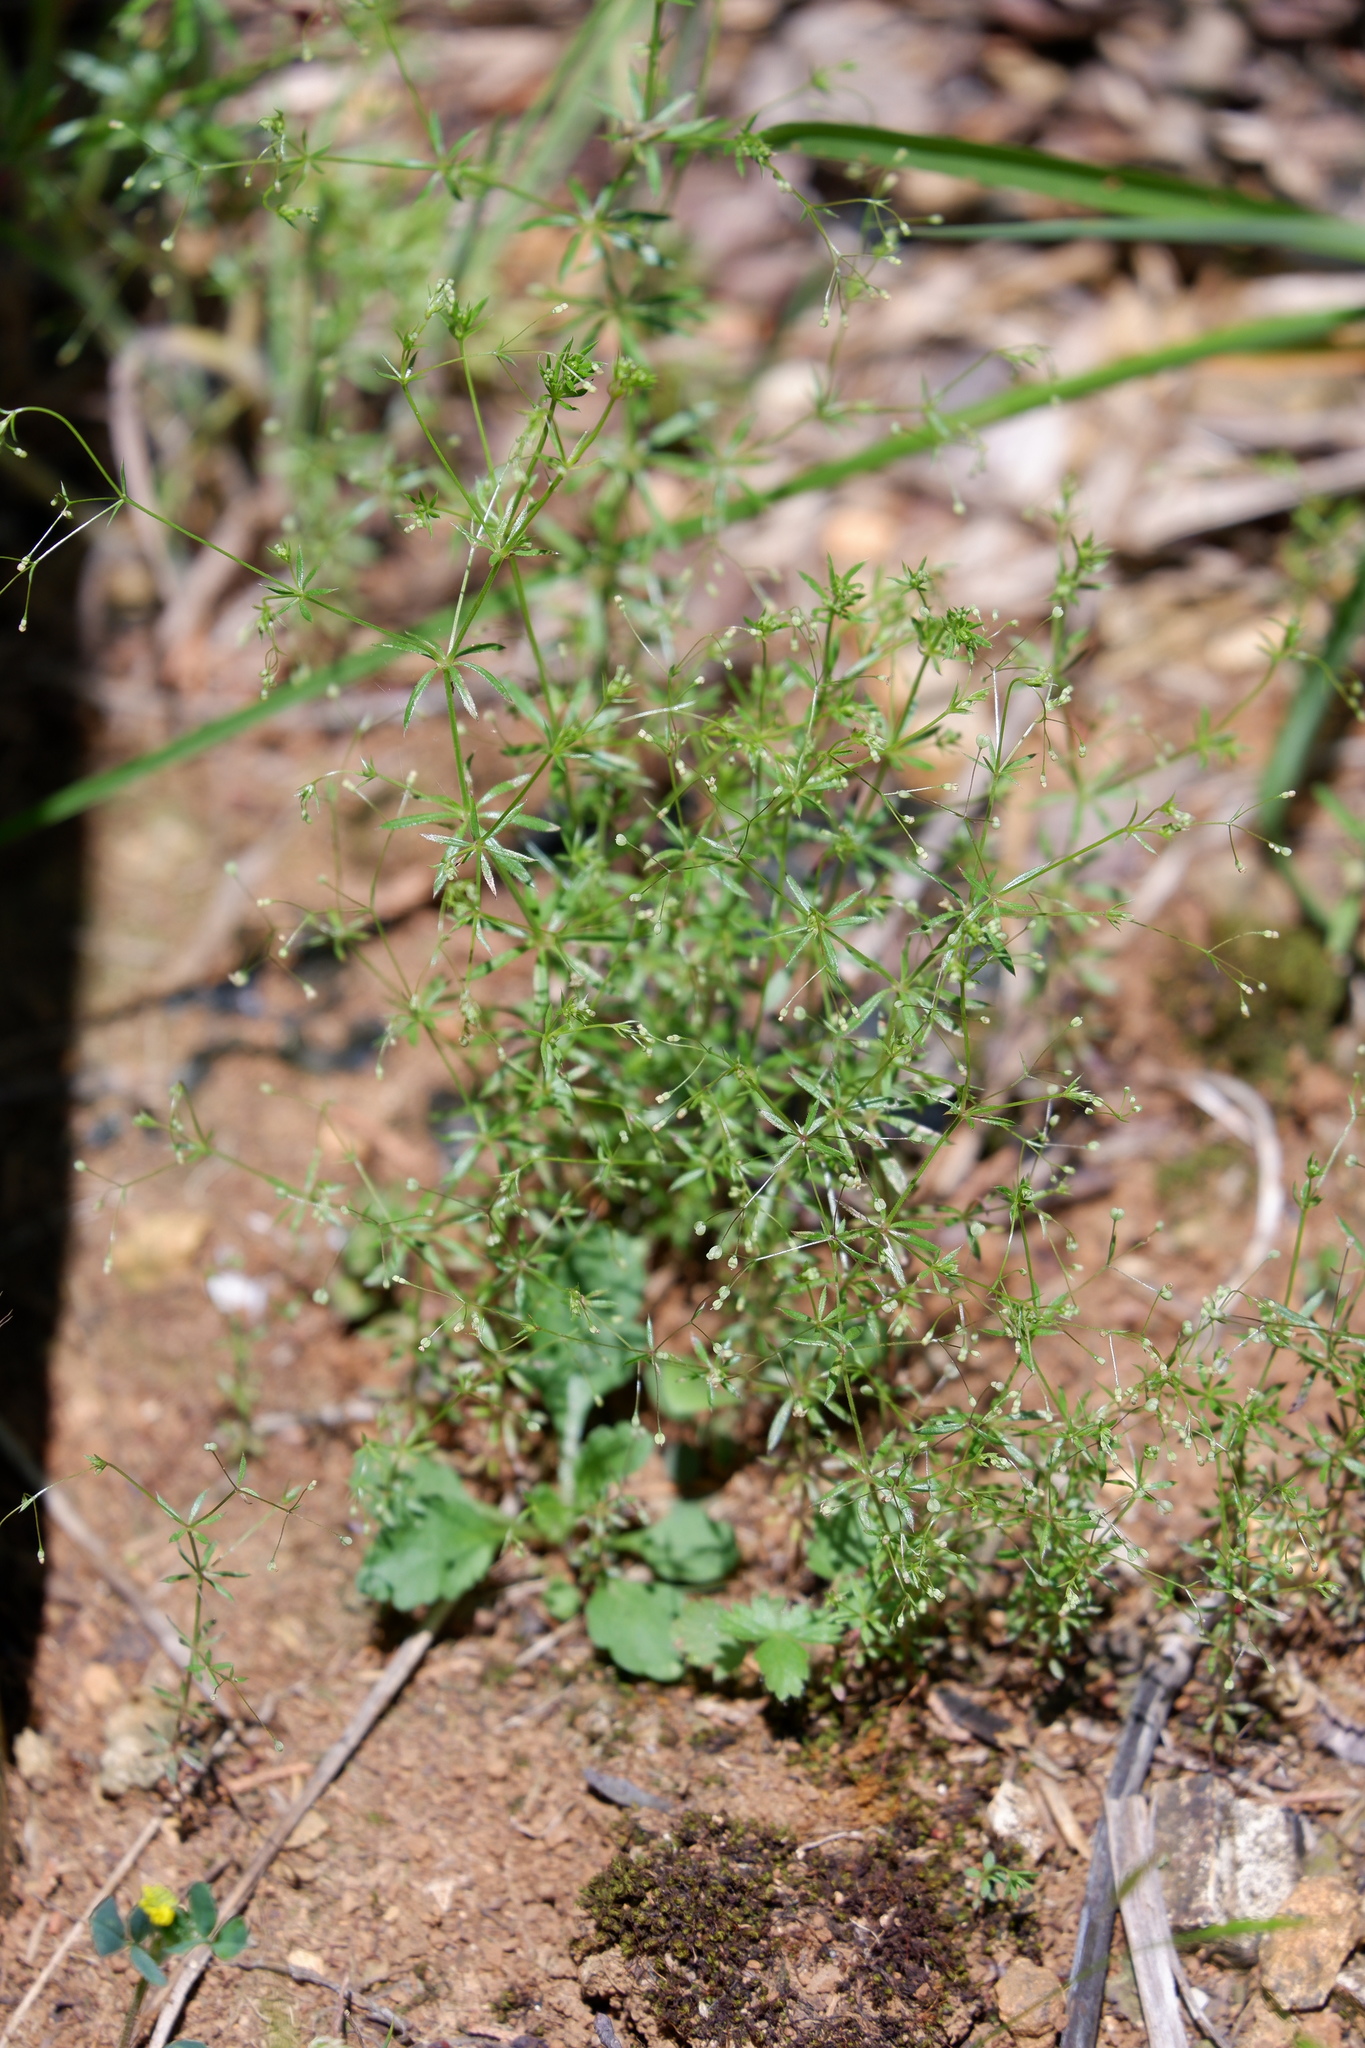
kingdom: Plantae
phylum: Tracheophyta
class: Magnoliopsida
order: Gentianales
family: Rubiaceae
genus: Galium
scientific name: Galium divaricatum
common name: Lamarck's bedstraw
